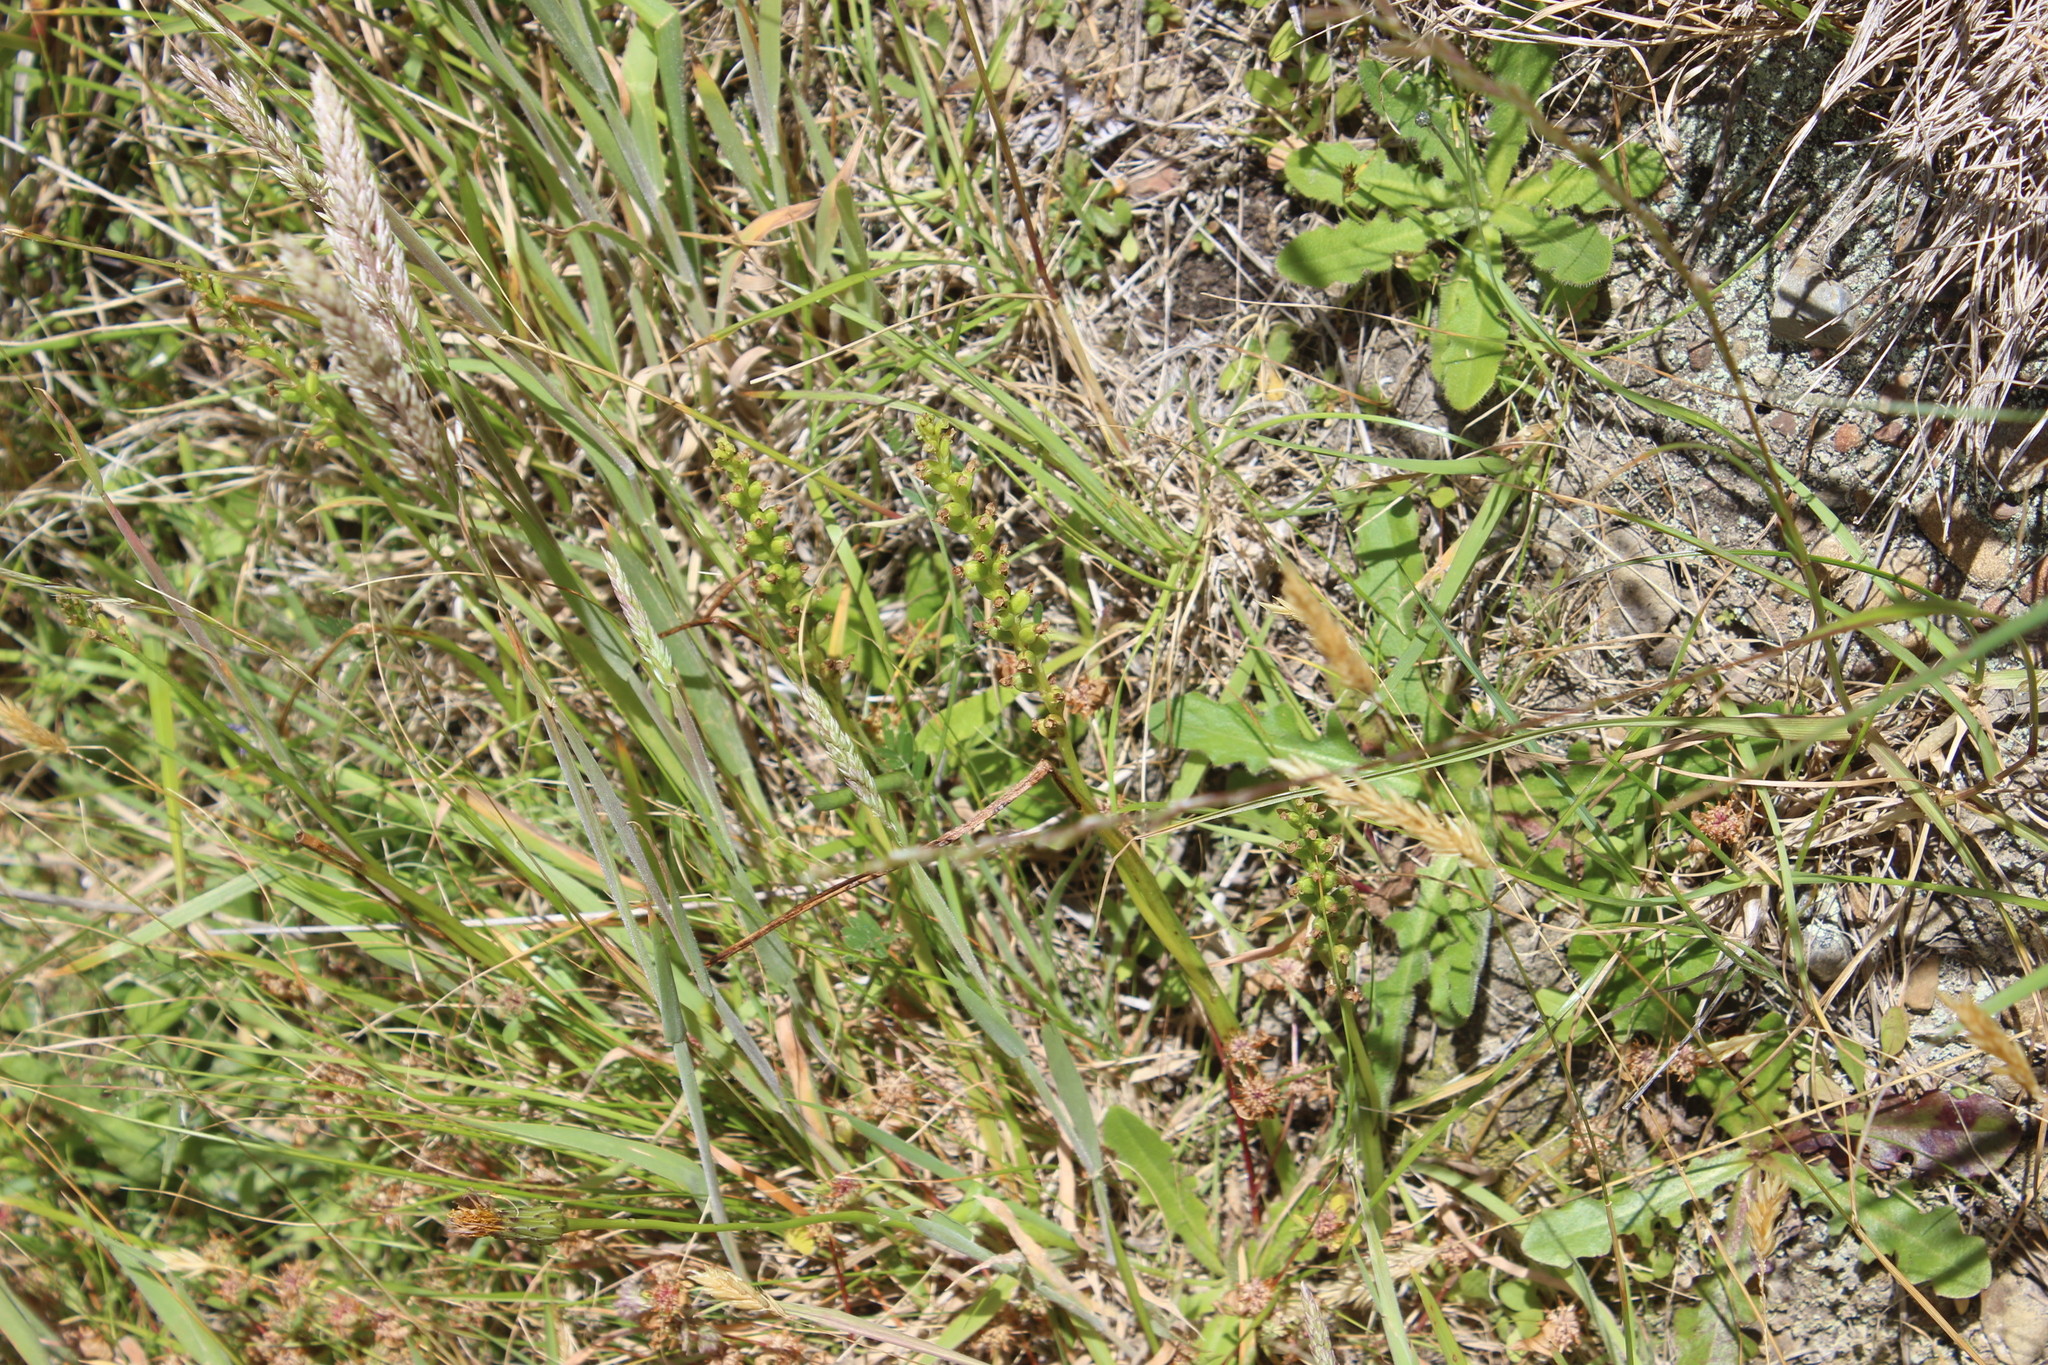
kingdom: Plantae
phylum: Tracheophyta
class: Liliopsida
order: Asparagales
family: Orchidaceae
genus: Microtis
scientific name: Microtis unifolia
